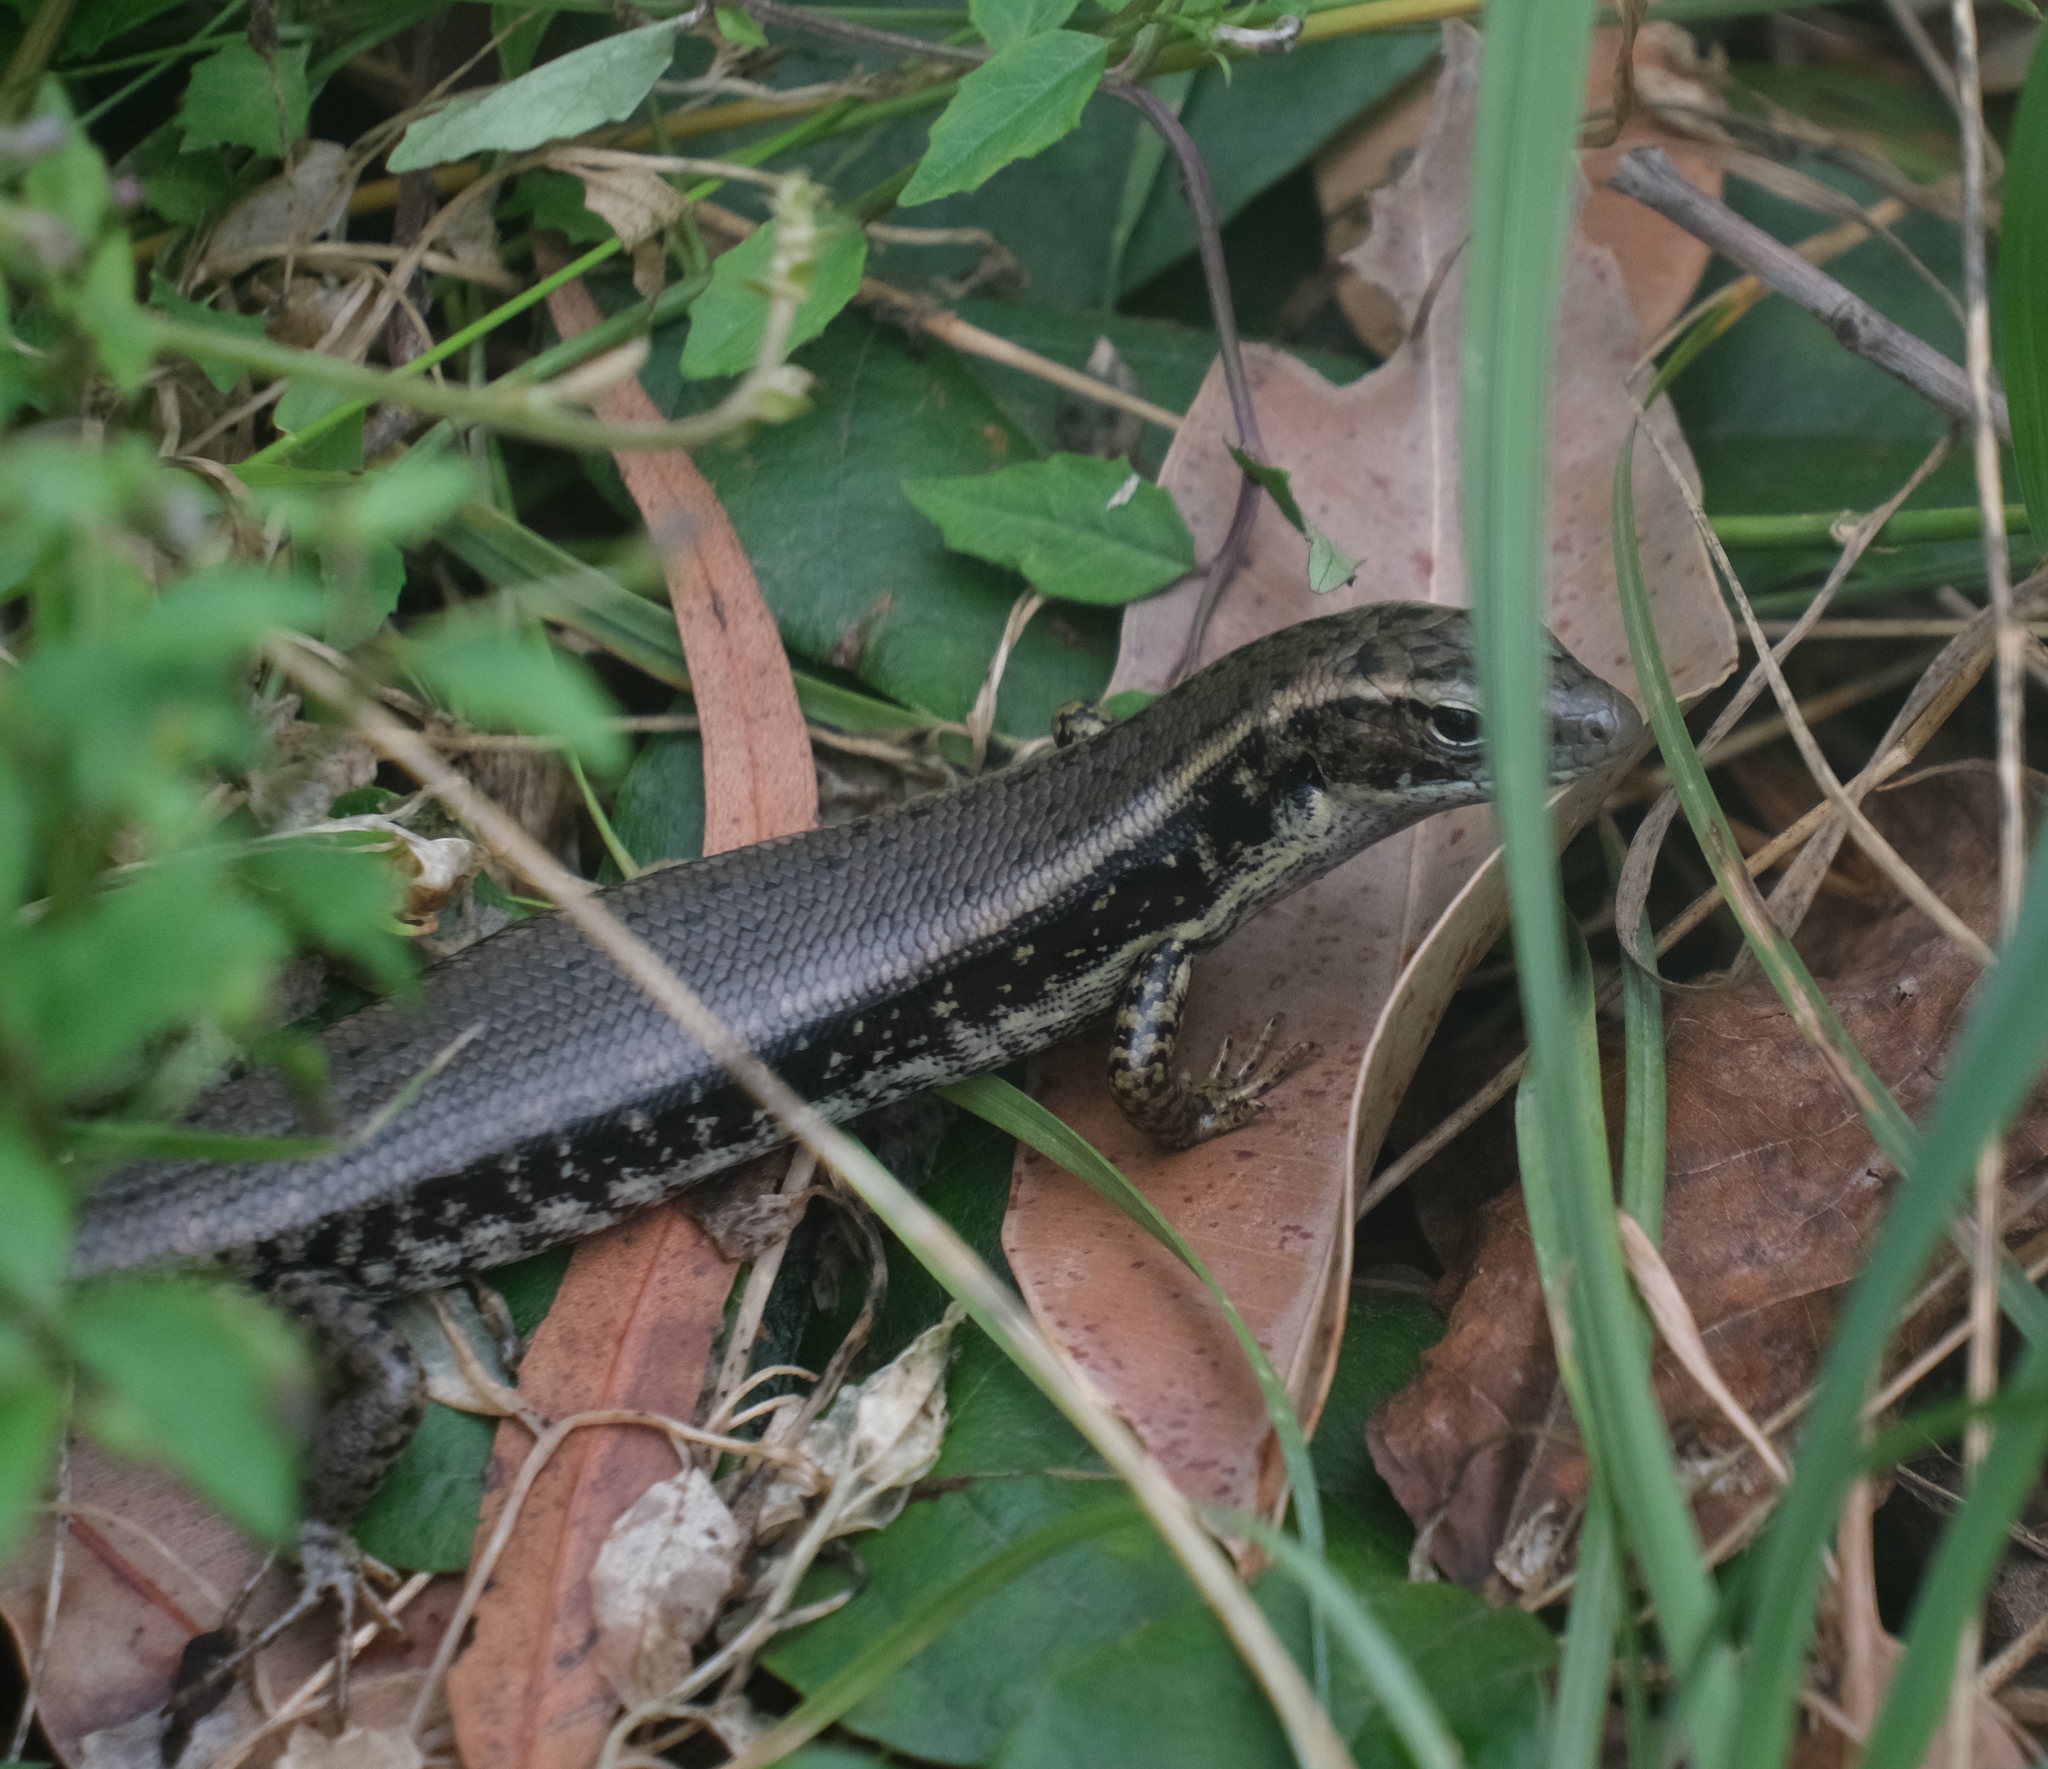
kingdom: Animalia
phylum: Chordata
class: Squamata
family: Scincidae
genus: Eulamprus
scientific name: Eulamprus quoyii
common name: Eastern water skink
